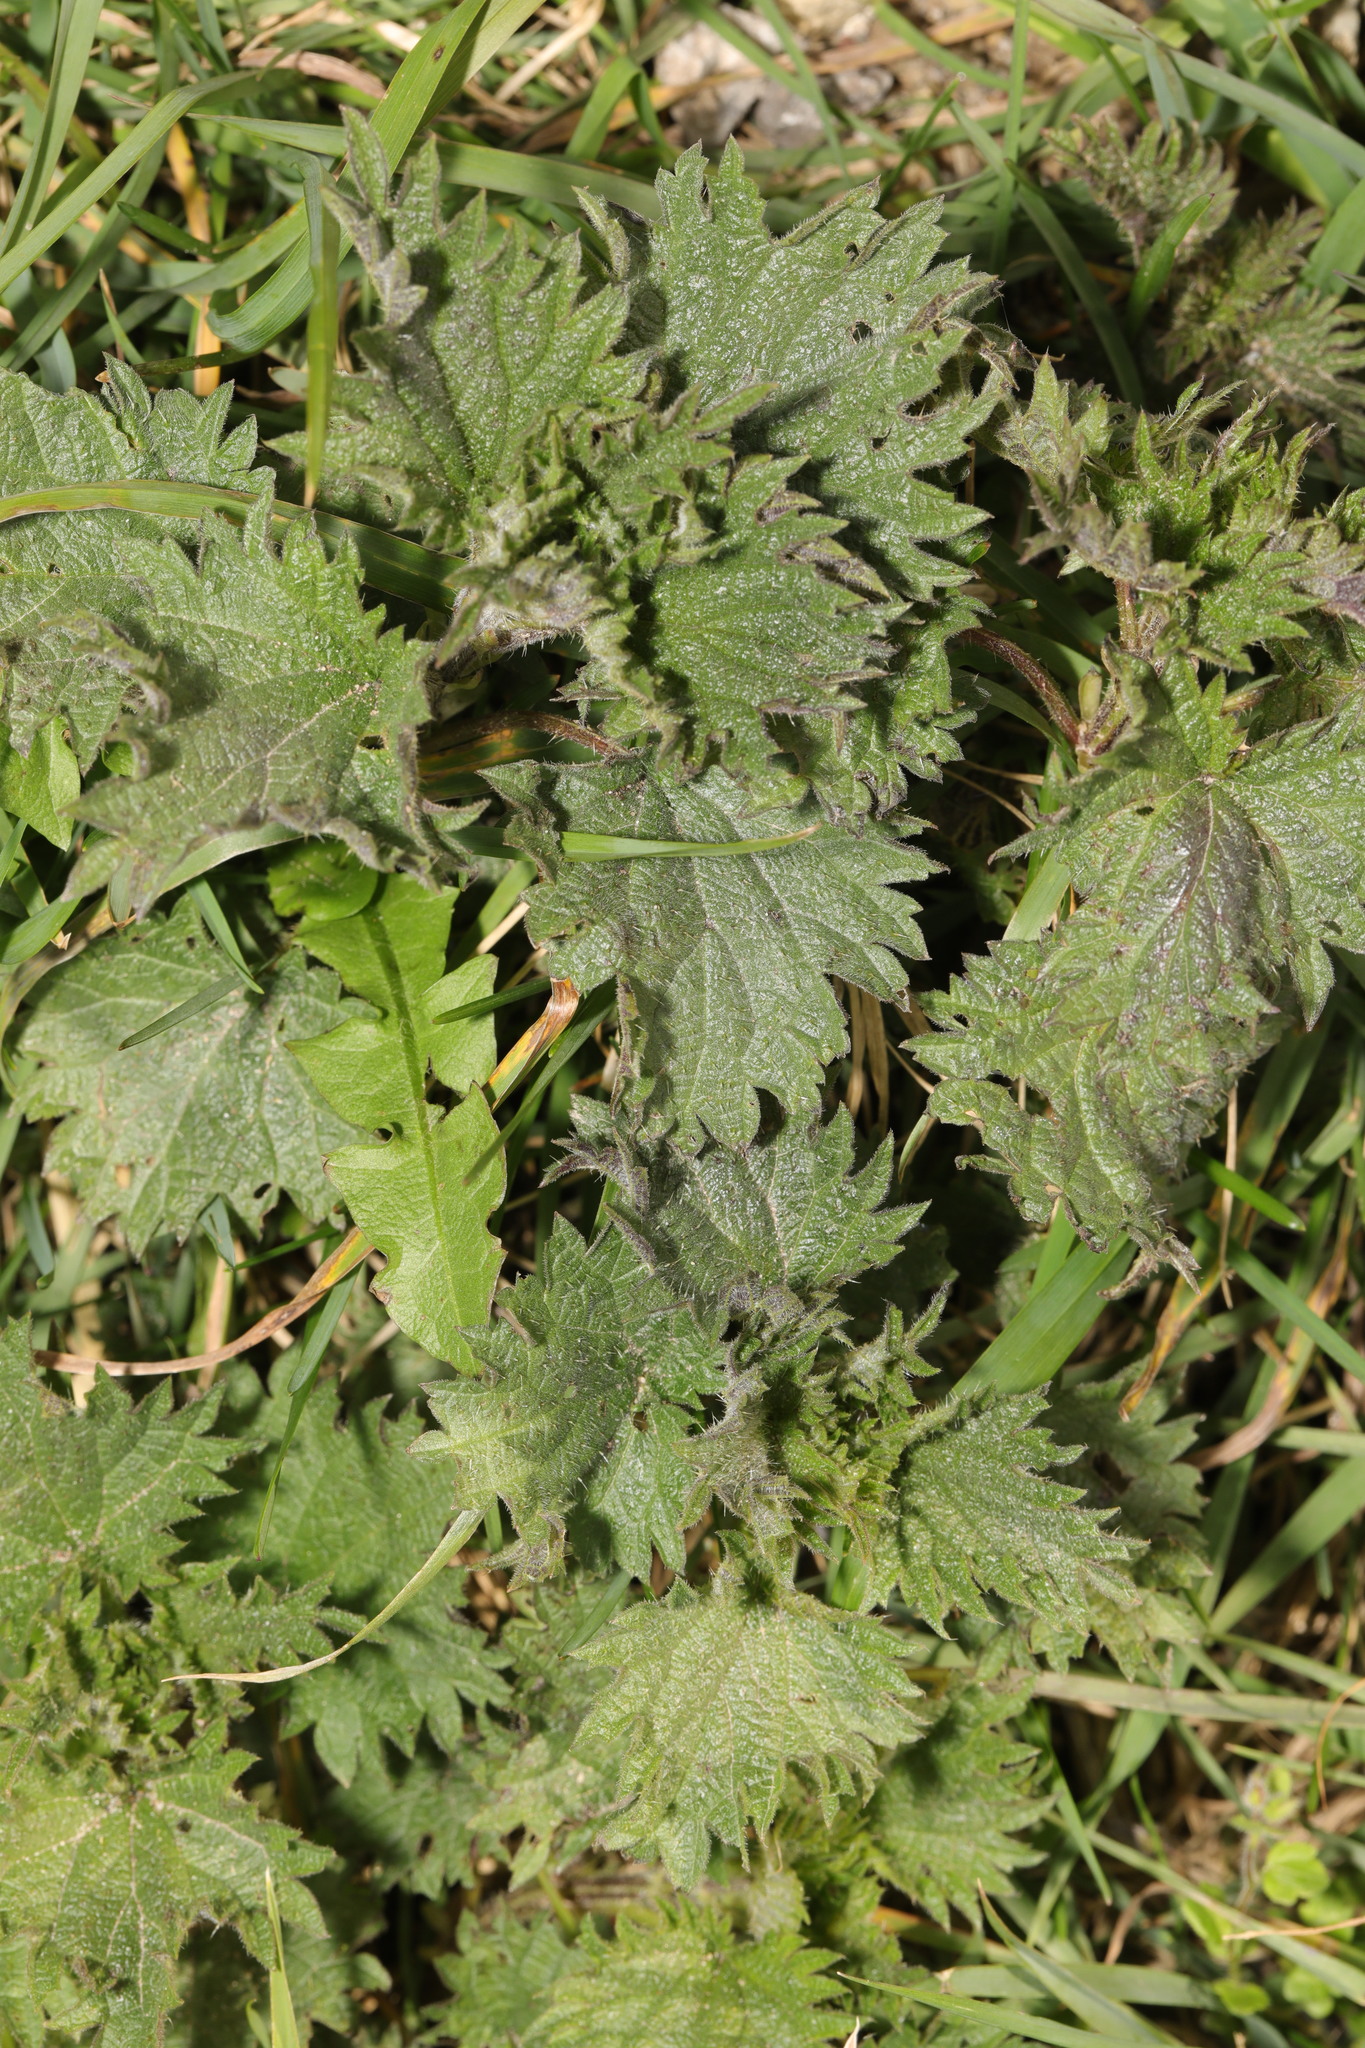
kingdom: Plantae
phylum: Tracheophyta
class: Magnoliopsida
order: Rosales
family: Urticaceae
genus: Urtica
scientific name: Urtica dioica
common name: Common nettle
